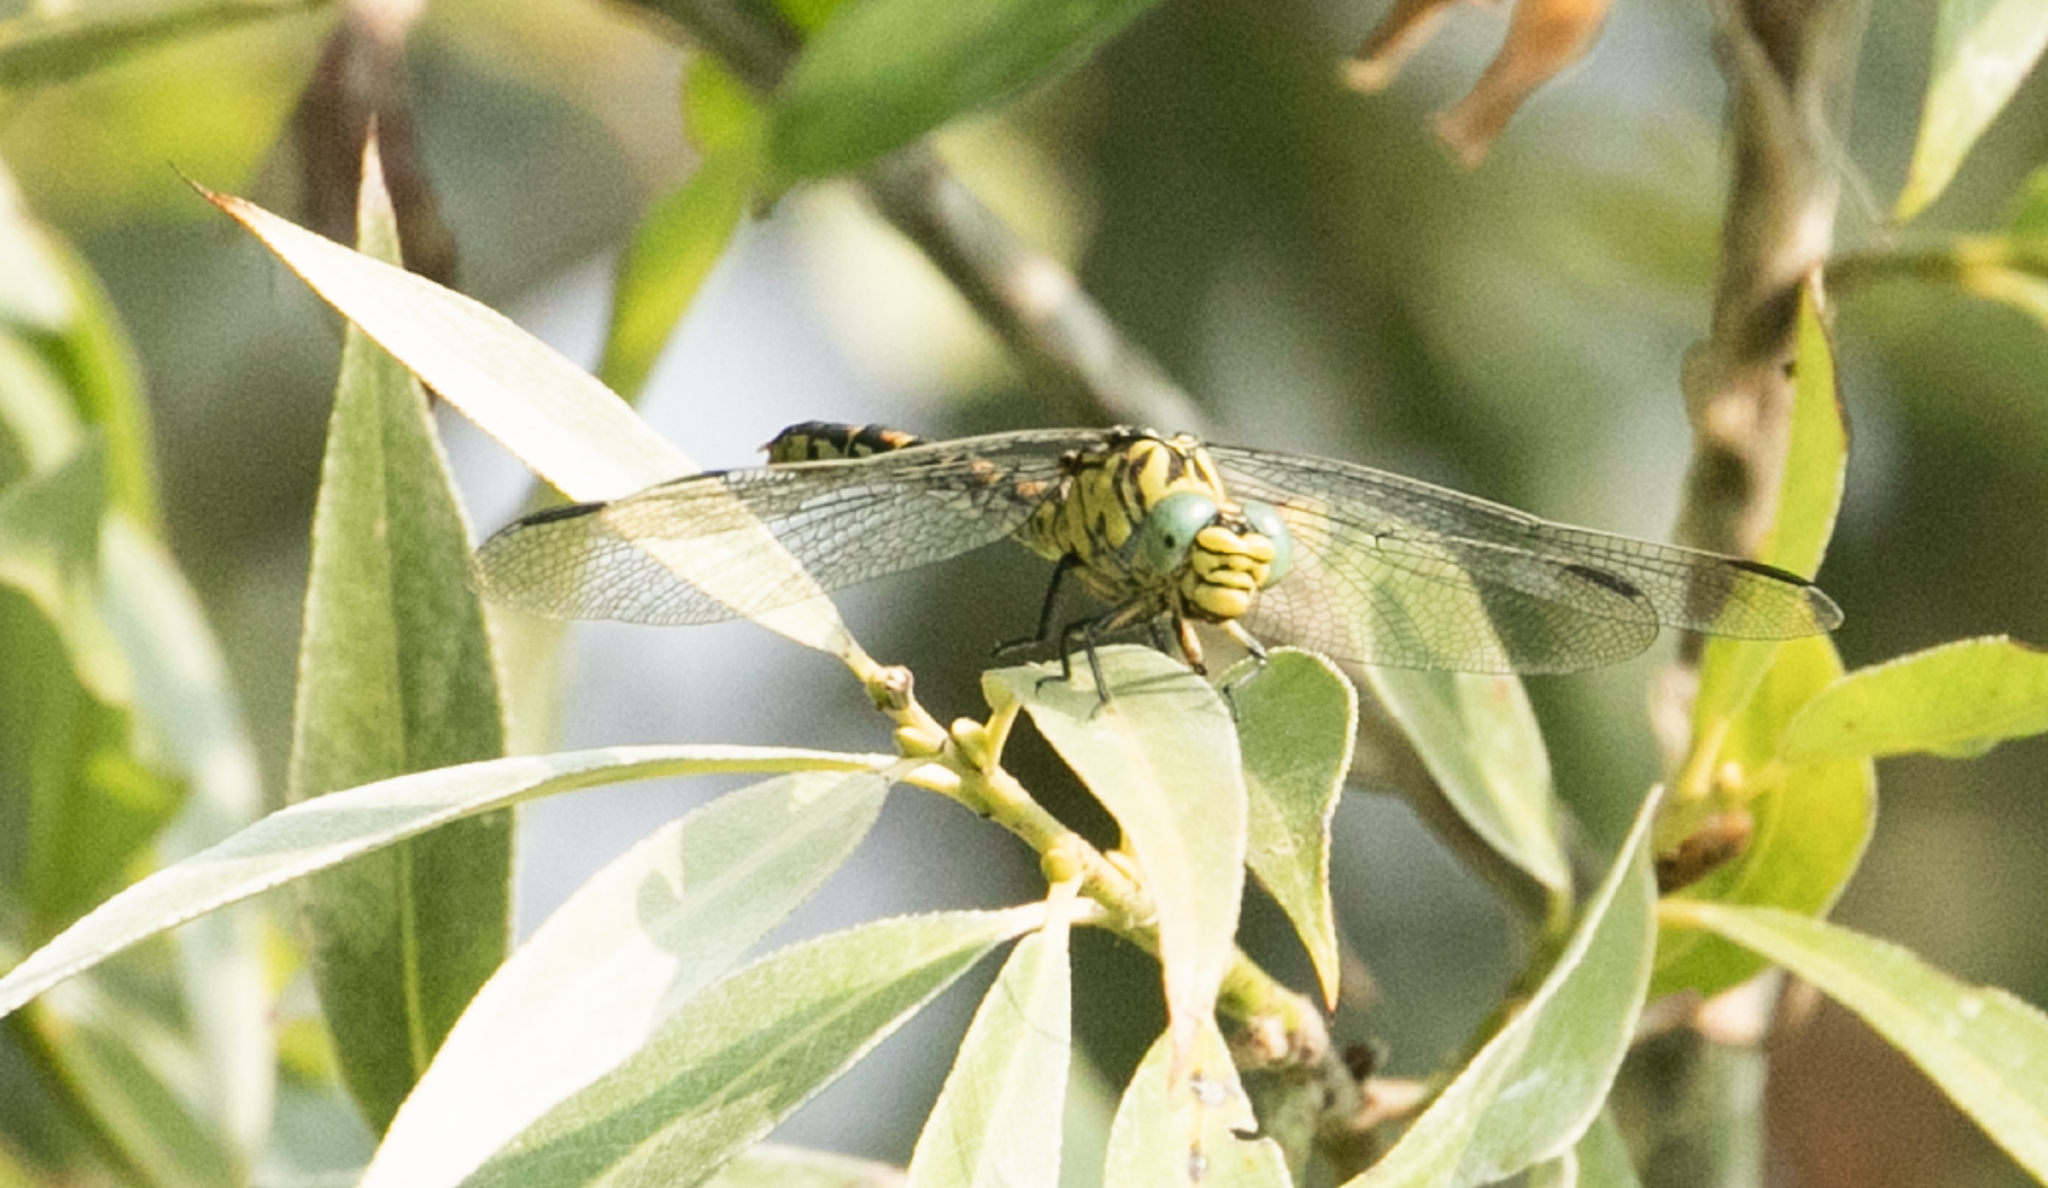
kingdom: Animalia
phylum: Arthropoda
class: Insecta
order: Odonata
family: Gomphidae
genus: Onychogomphus
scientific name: Onychogomphus forcipatus
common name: Small pincertail
